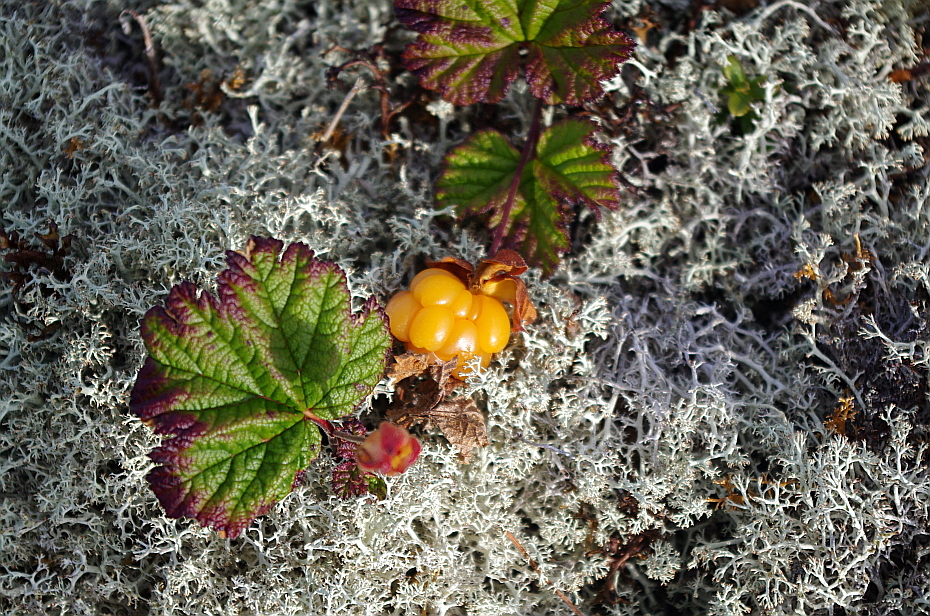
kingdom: Fungi
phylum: Ascomycota
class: Lecanoromycetes
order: Lecanorales
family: Cladoniaceae
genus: Cladonia
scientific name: Cladonia stellaris
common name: Star-tipped reindeer lichen
